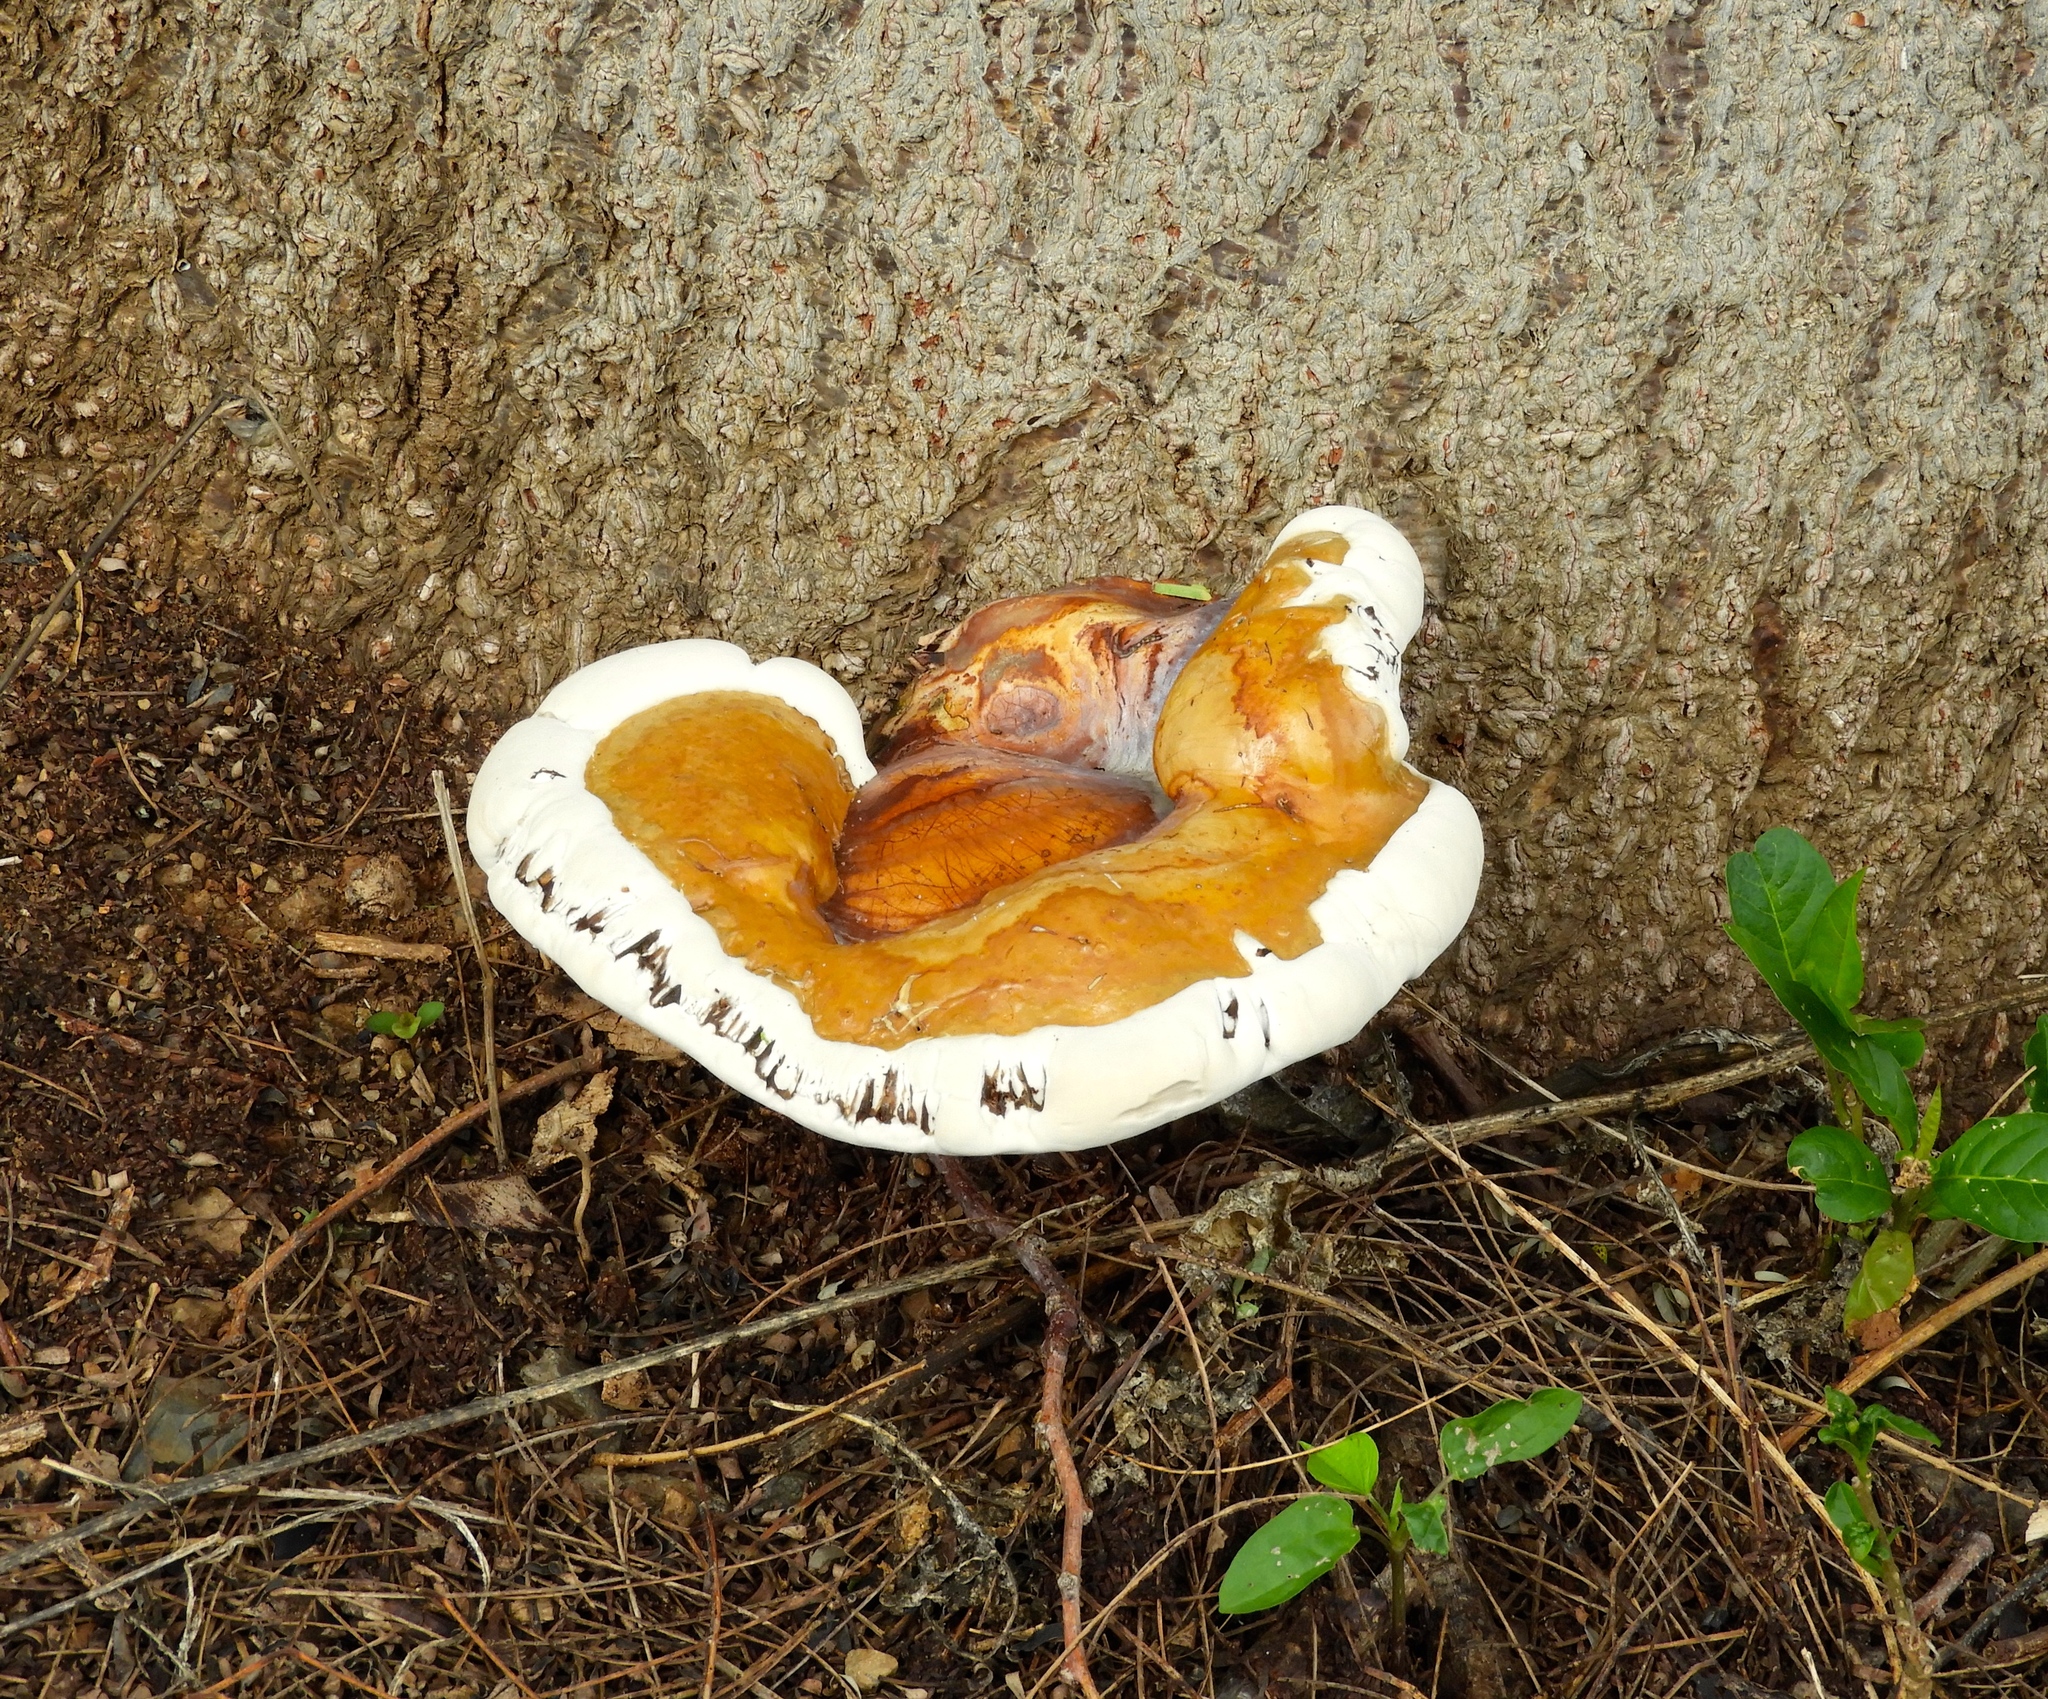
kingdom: Fungi
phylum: Basidiomycota
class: Agaricomycetes
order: Polyporales
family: Polyporaceae
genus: Ganoderma
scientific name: Ganoderma
